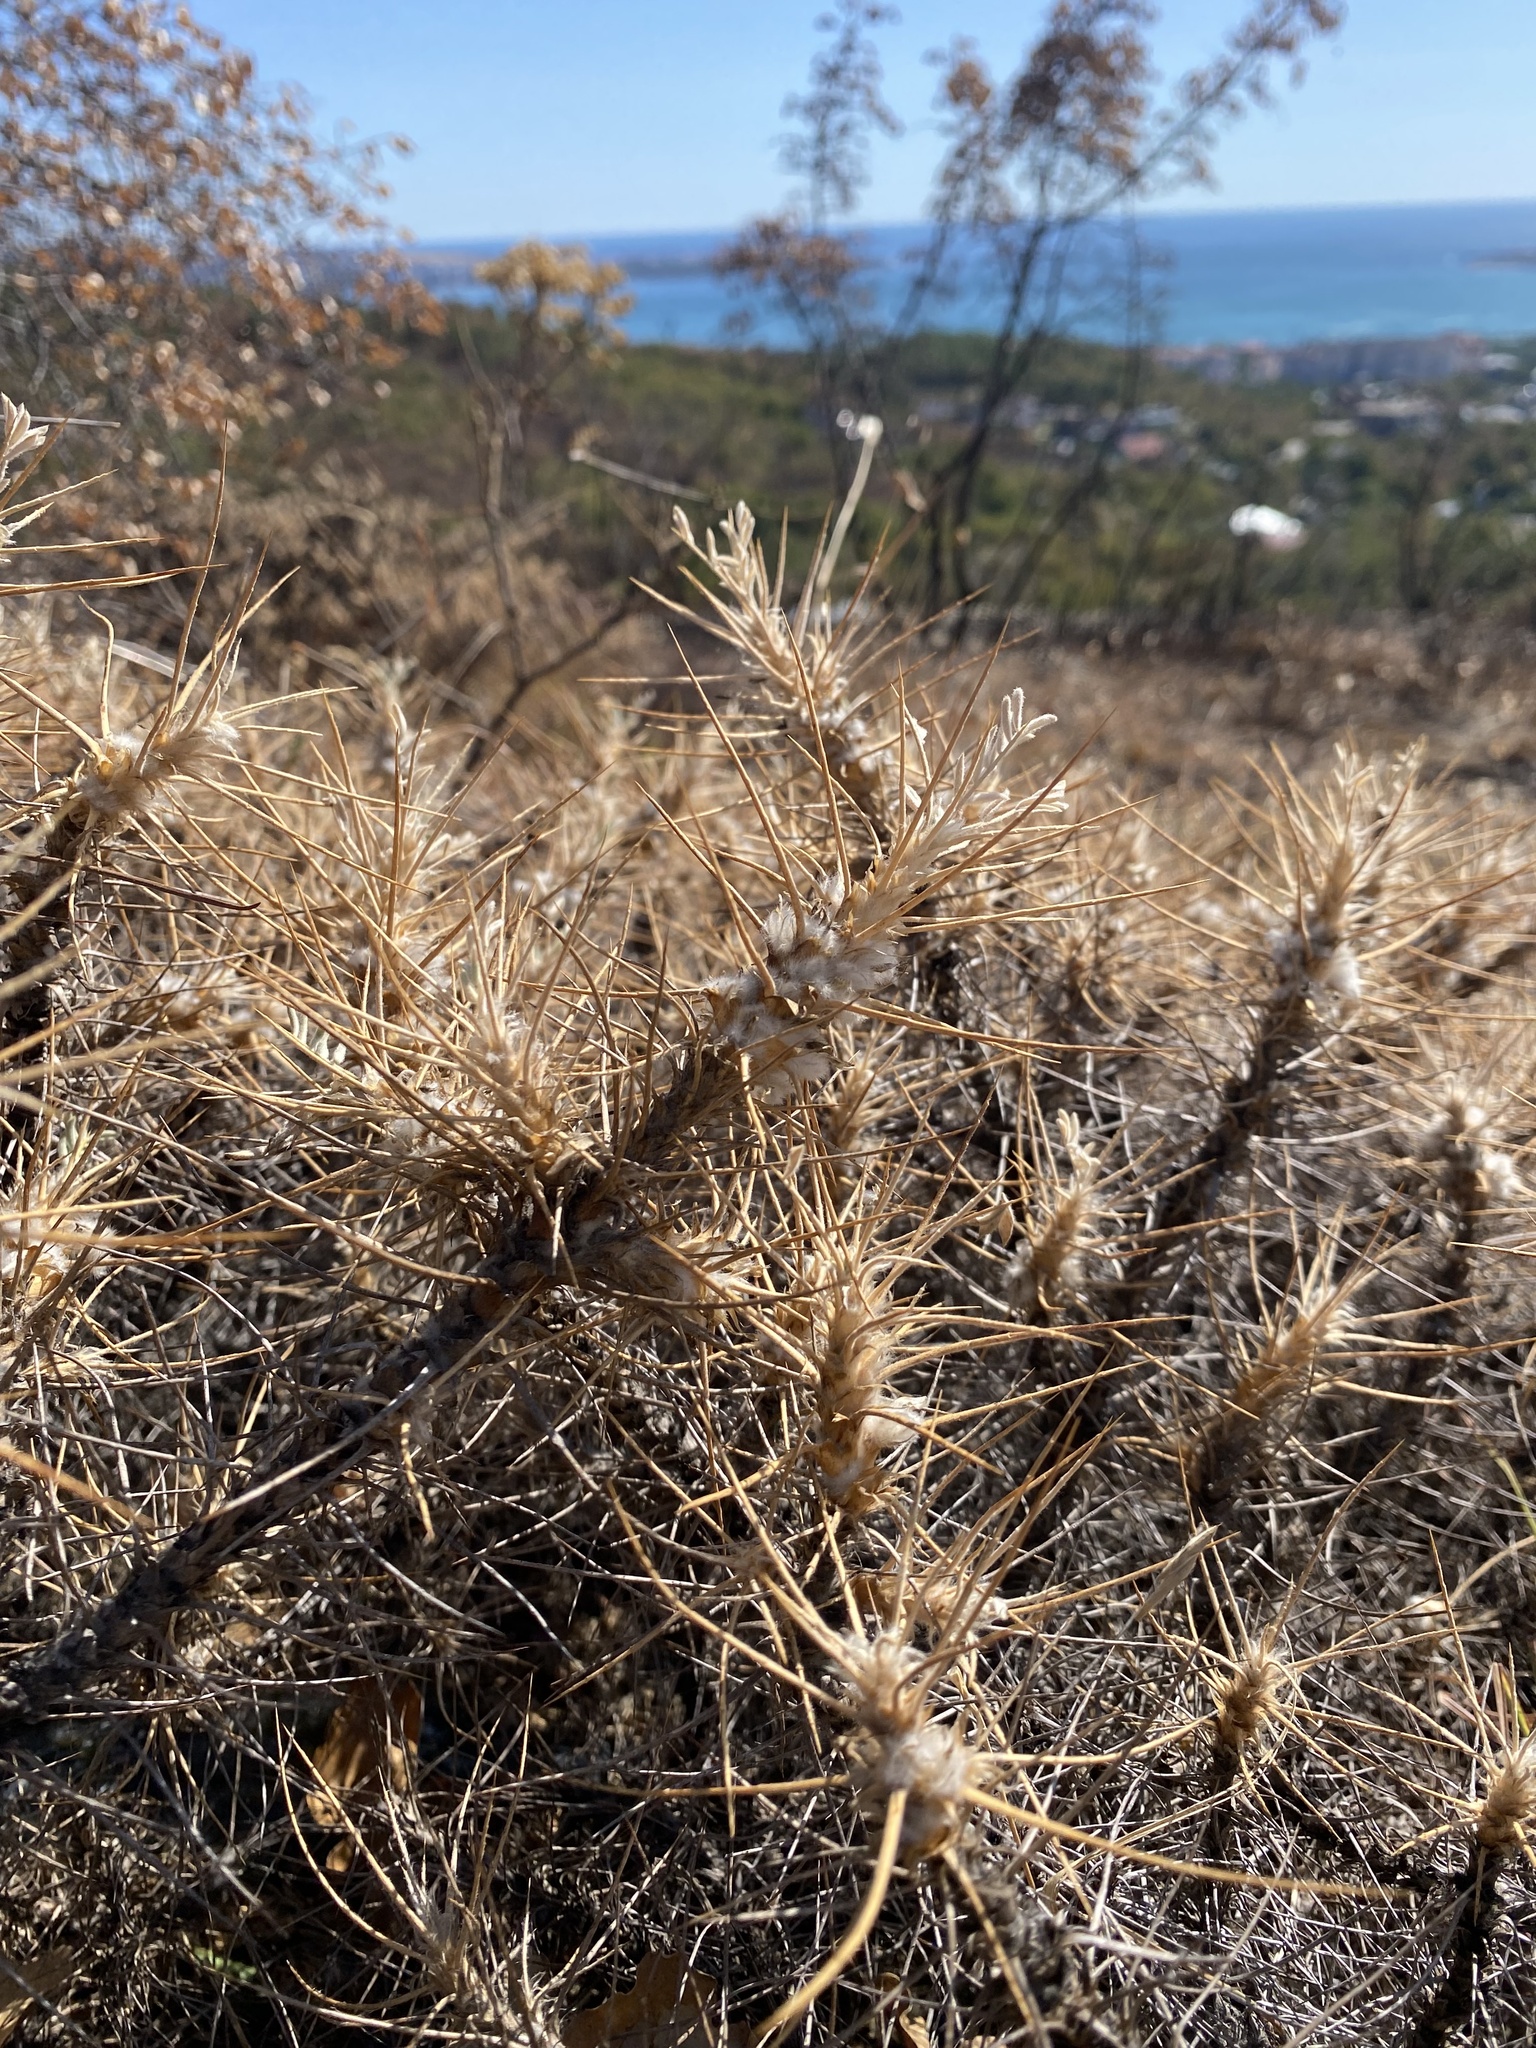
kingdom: Plantae
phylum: Tracheophyta
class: Magnoliopsida
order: Fabales
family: Fabaceae
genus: Astragalus
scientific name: Astragalus arnacanthoides
